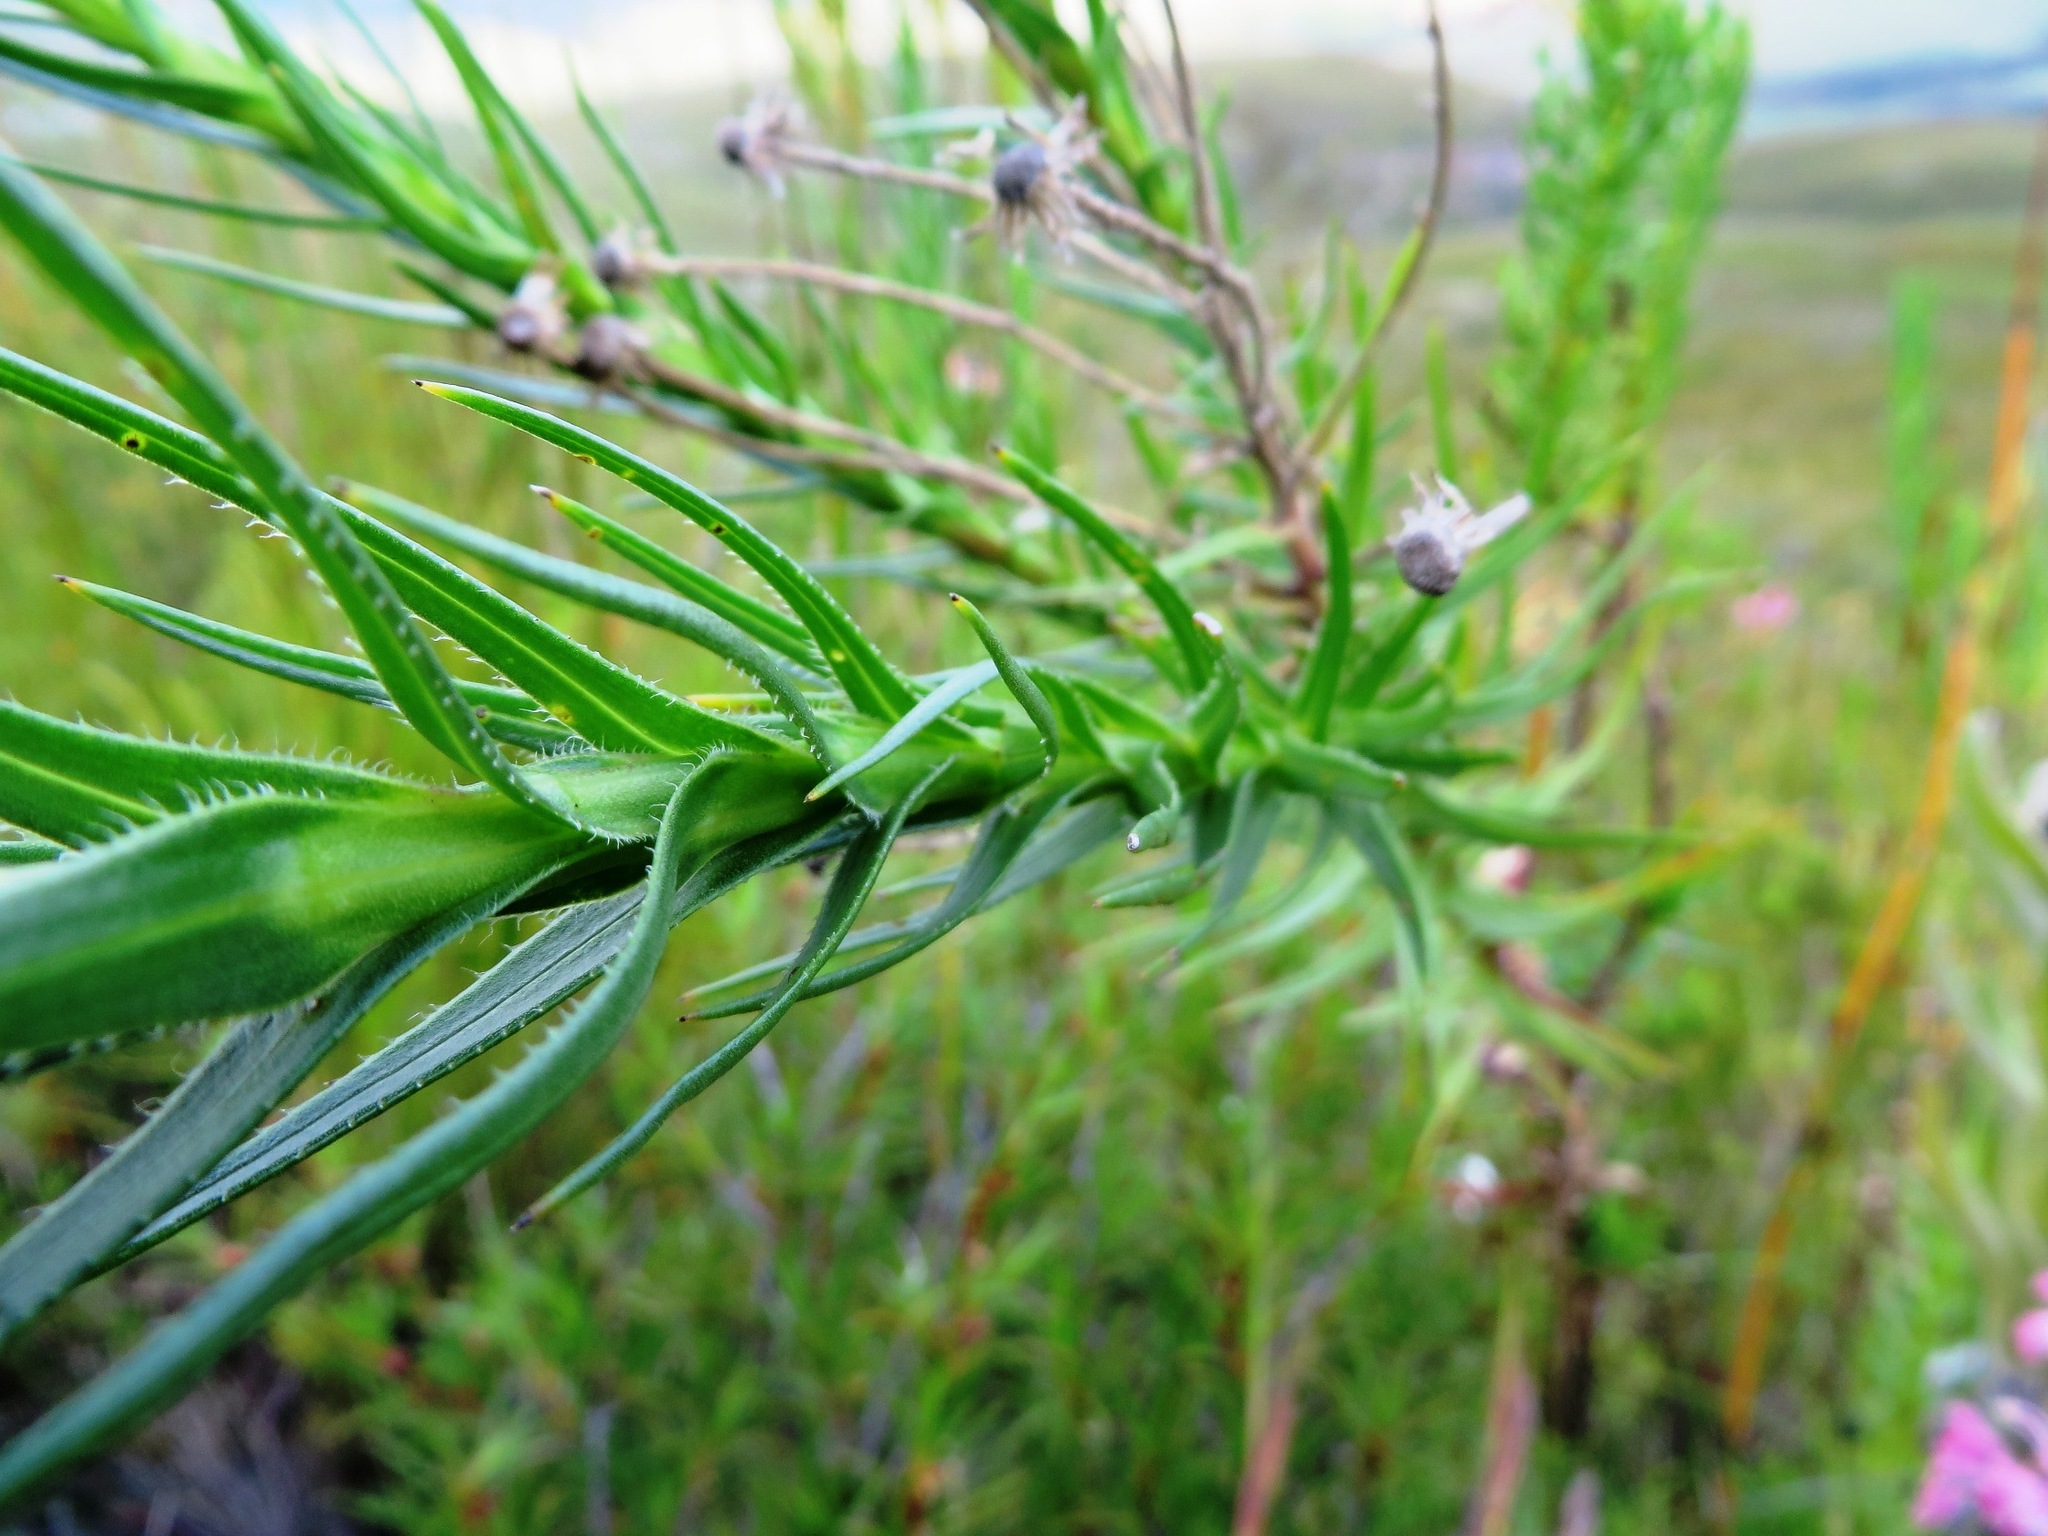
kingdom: Plantae
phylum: Tracheophyta
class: Magnoliopsida
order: Asterales
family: Asteraceae
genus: Zyrphelis
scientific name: Zyrphelis nervosa
